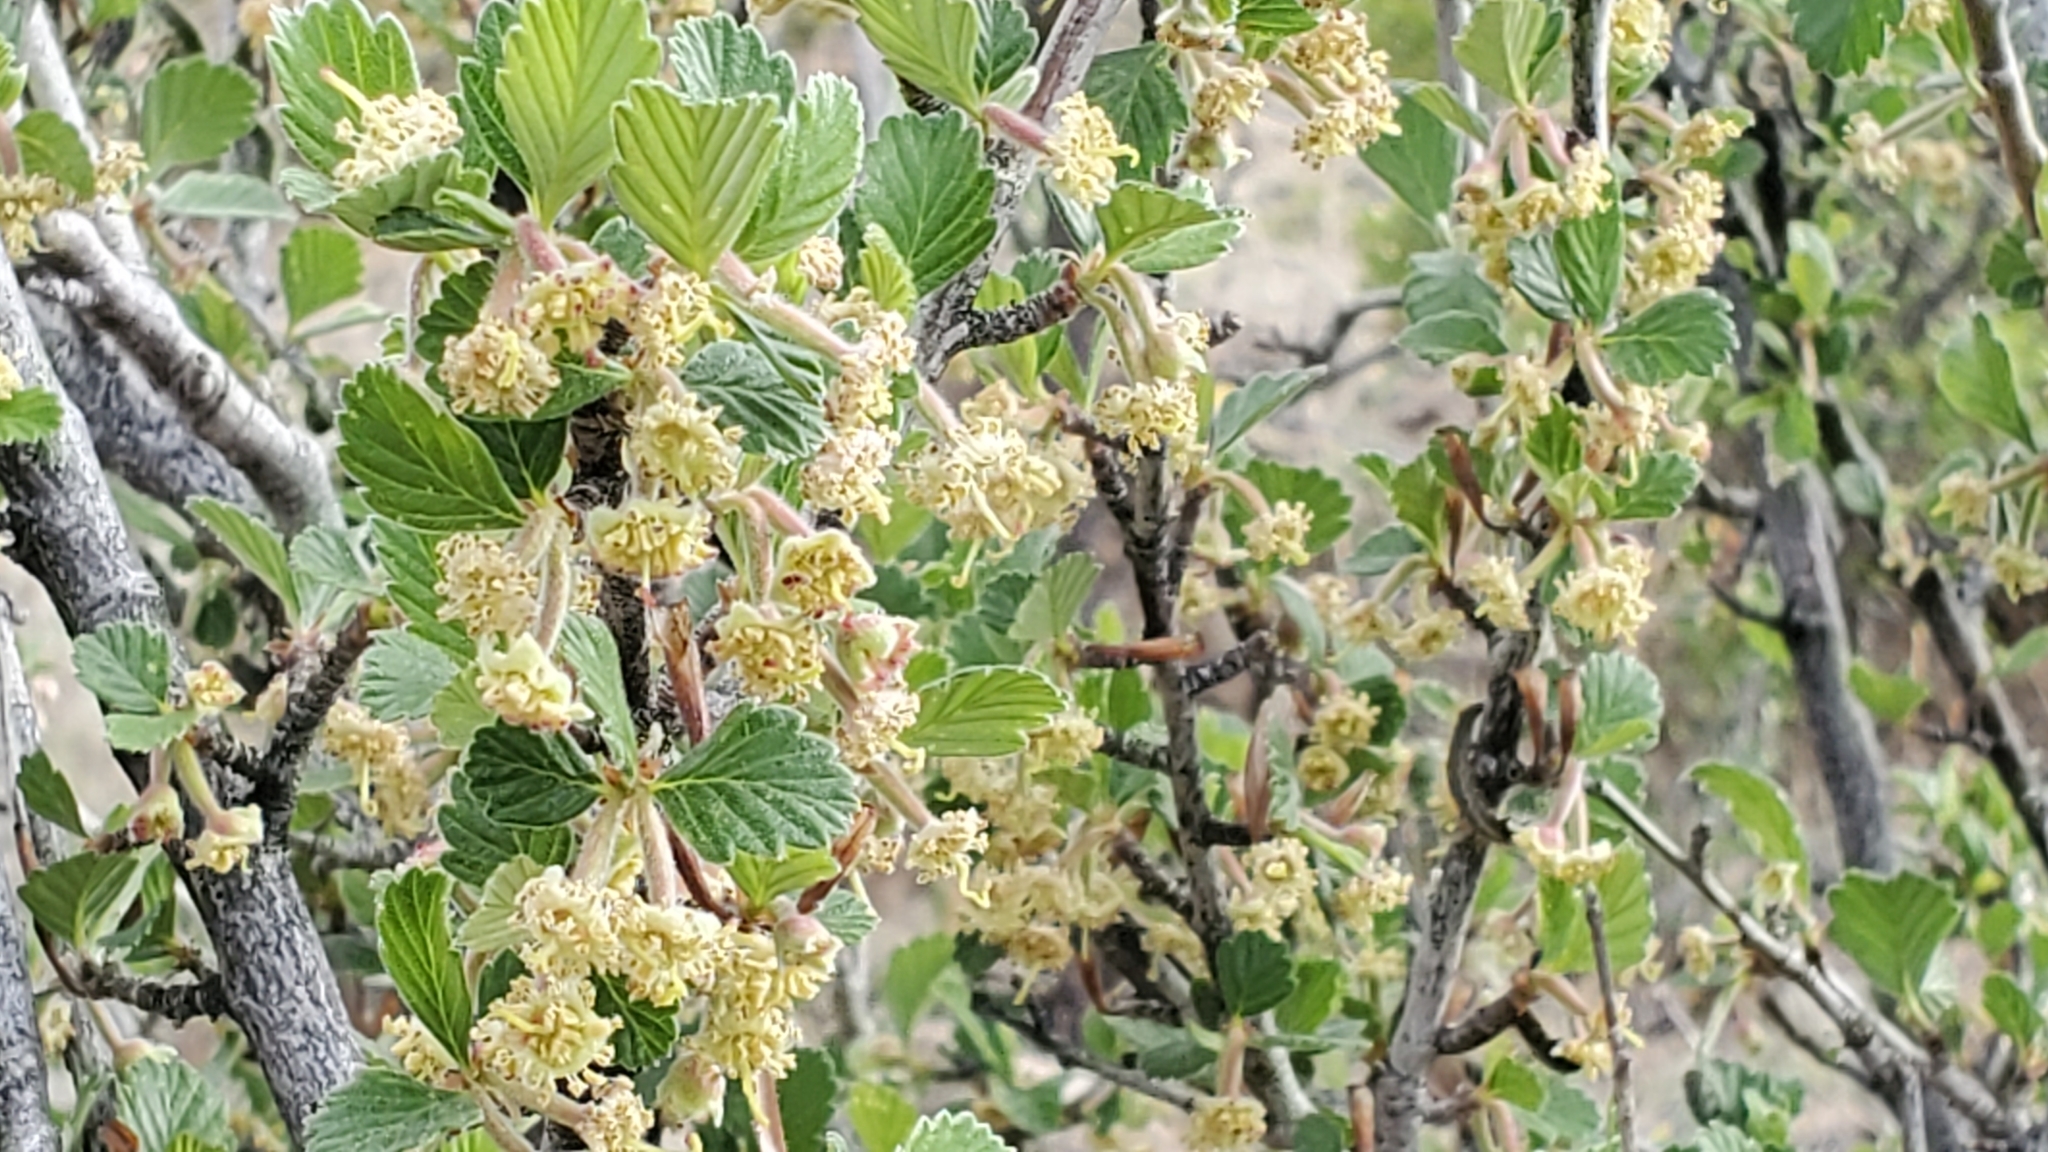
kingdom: Plantae
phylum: Tracheophyta
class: Magnoliopsida
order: Rosales
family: Rosaceae
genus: Cercocarpus
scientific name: Cercocarpus montanus
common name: Alder-leaf cercocarpus
